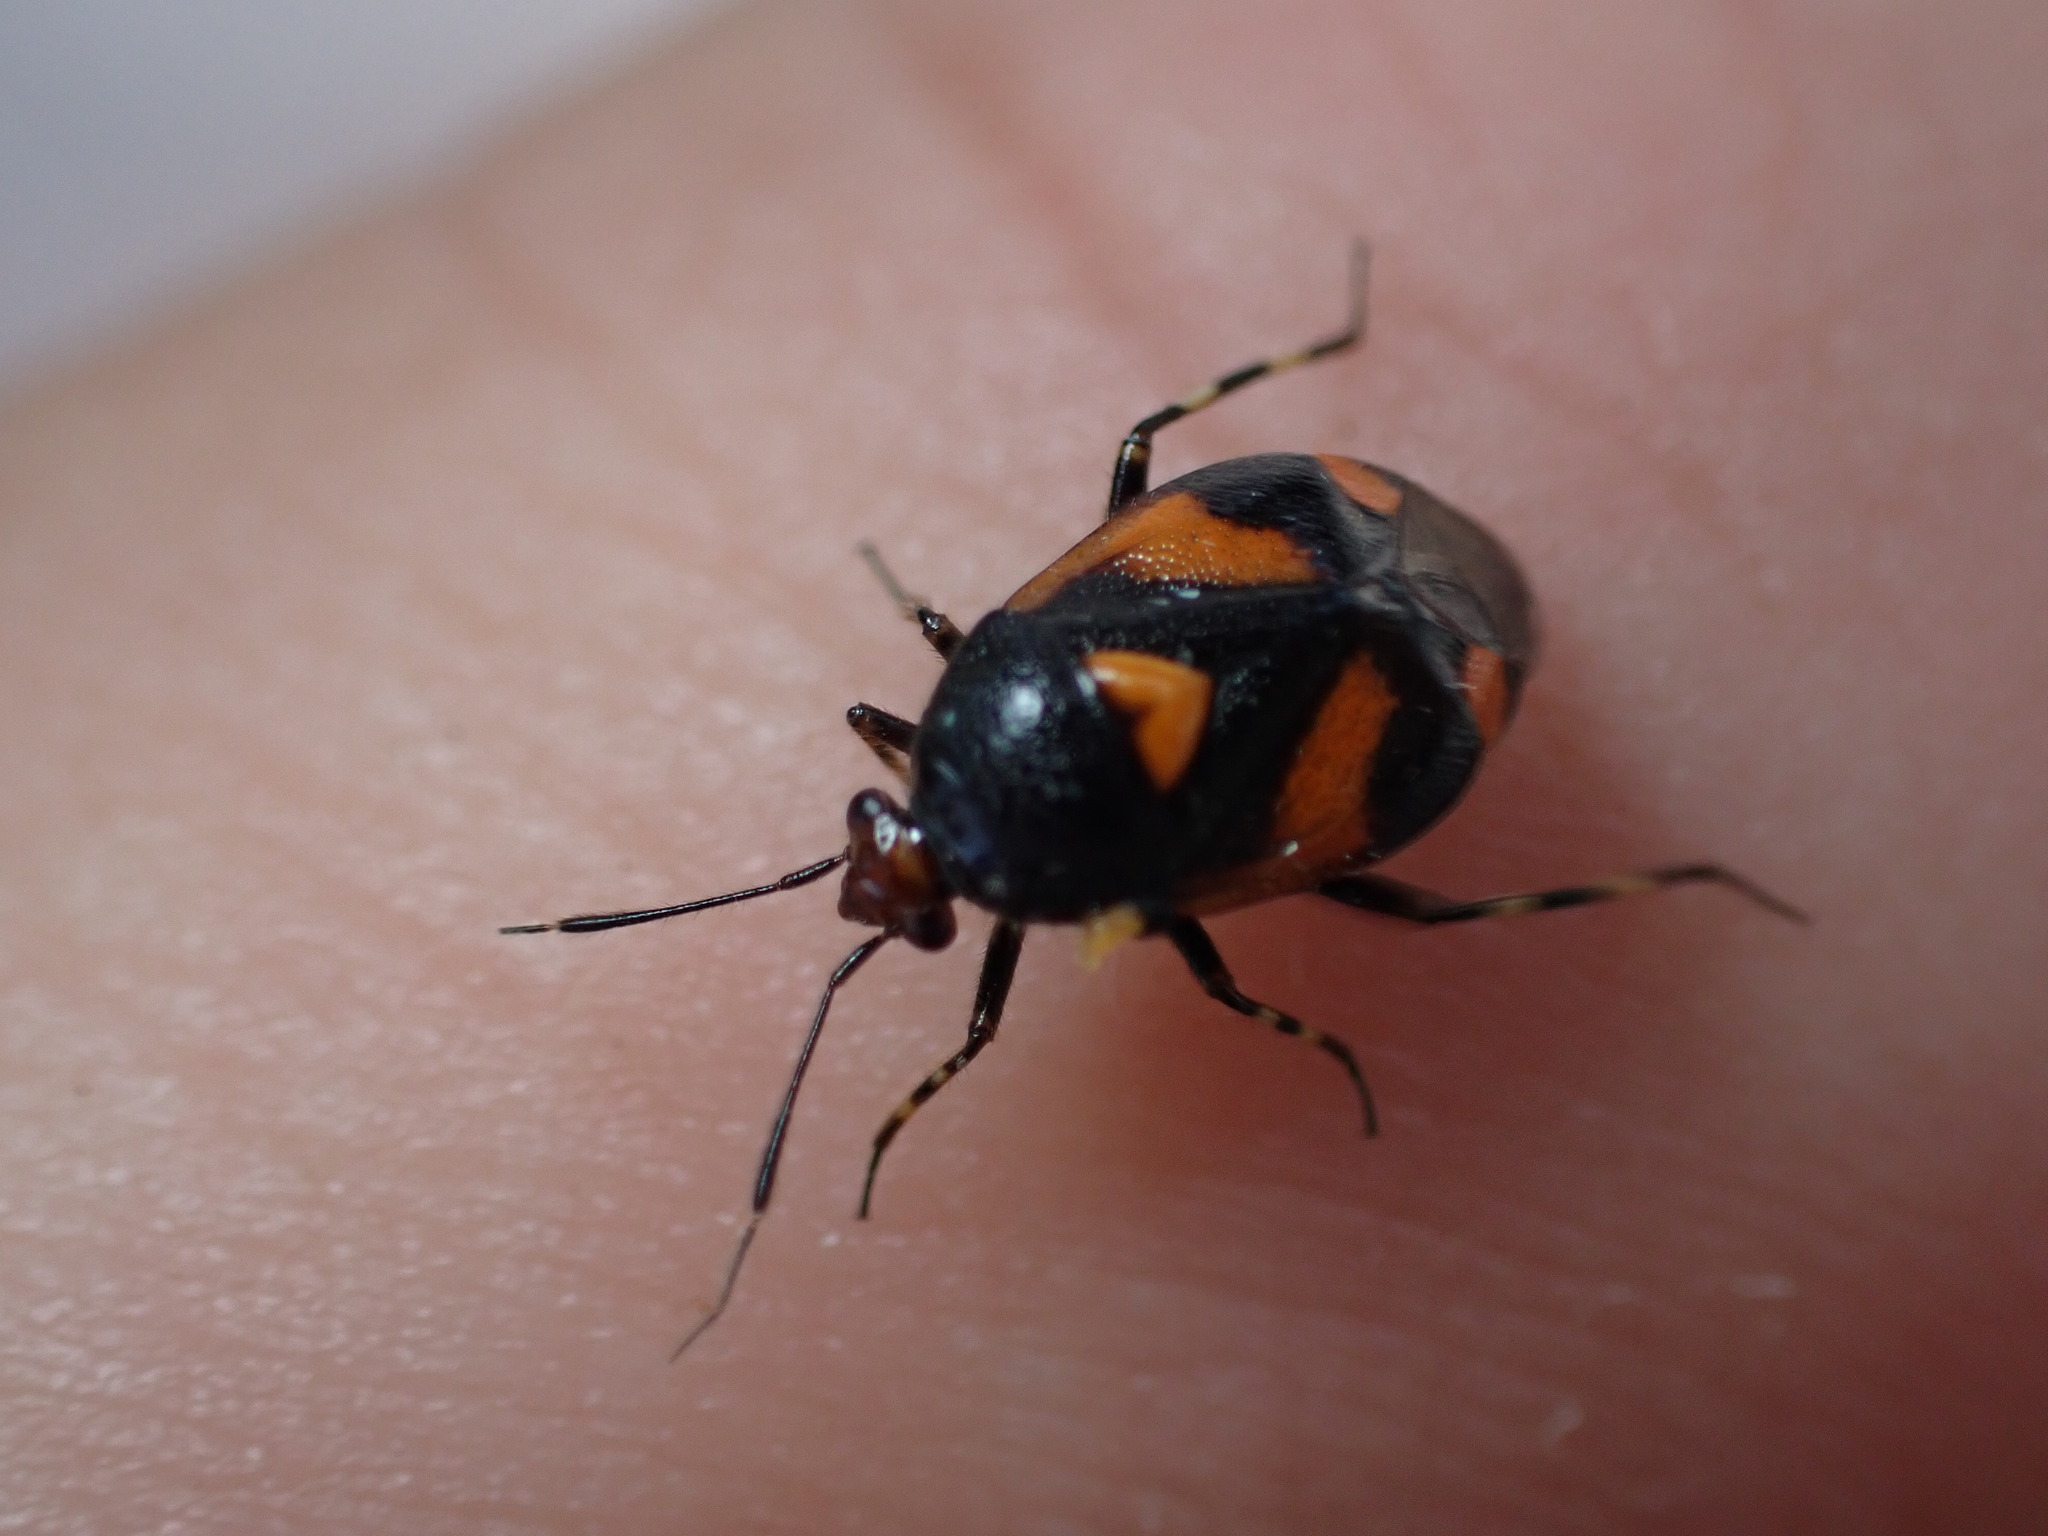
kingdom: Animalia
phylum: Arthropoda
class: Insecta
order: Hemiptera
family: Miridae
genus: Deraeocoris
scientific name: Deraeocoris schach
